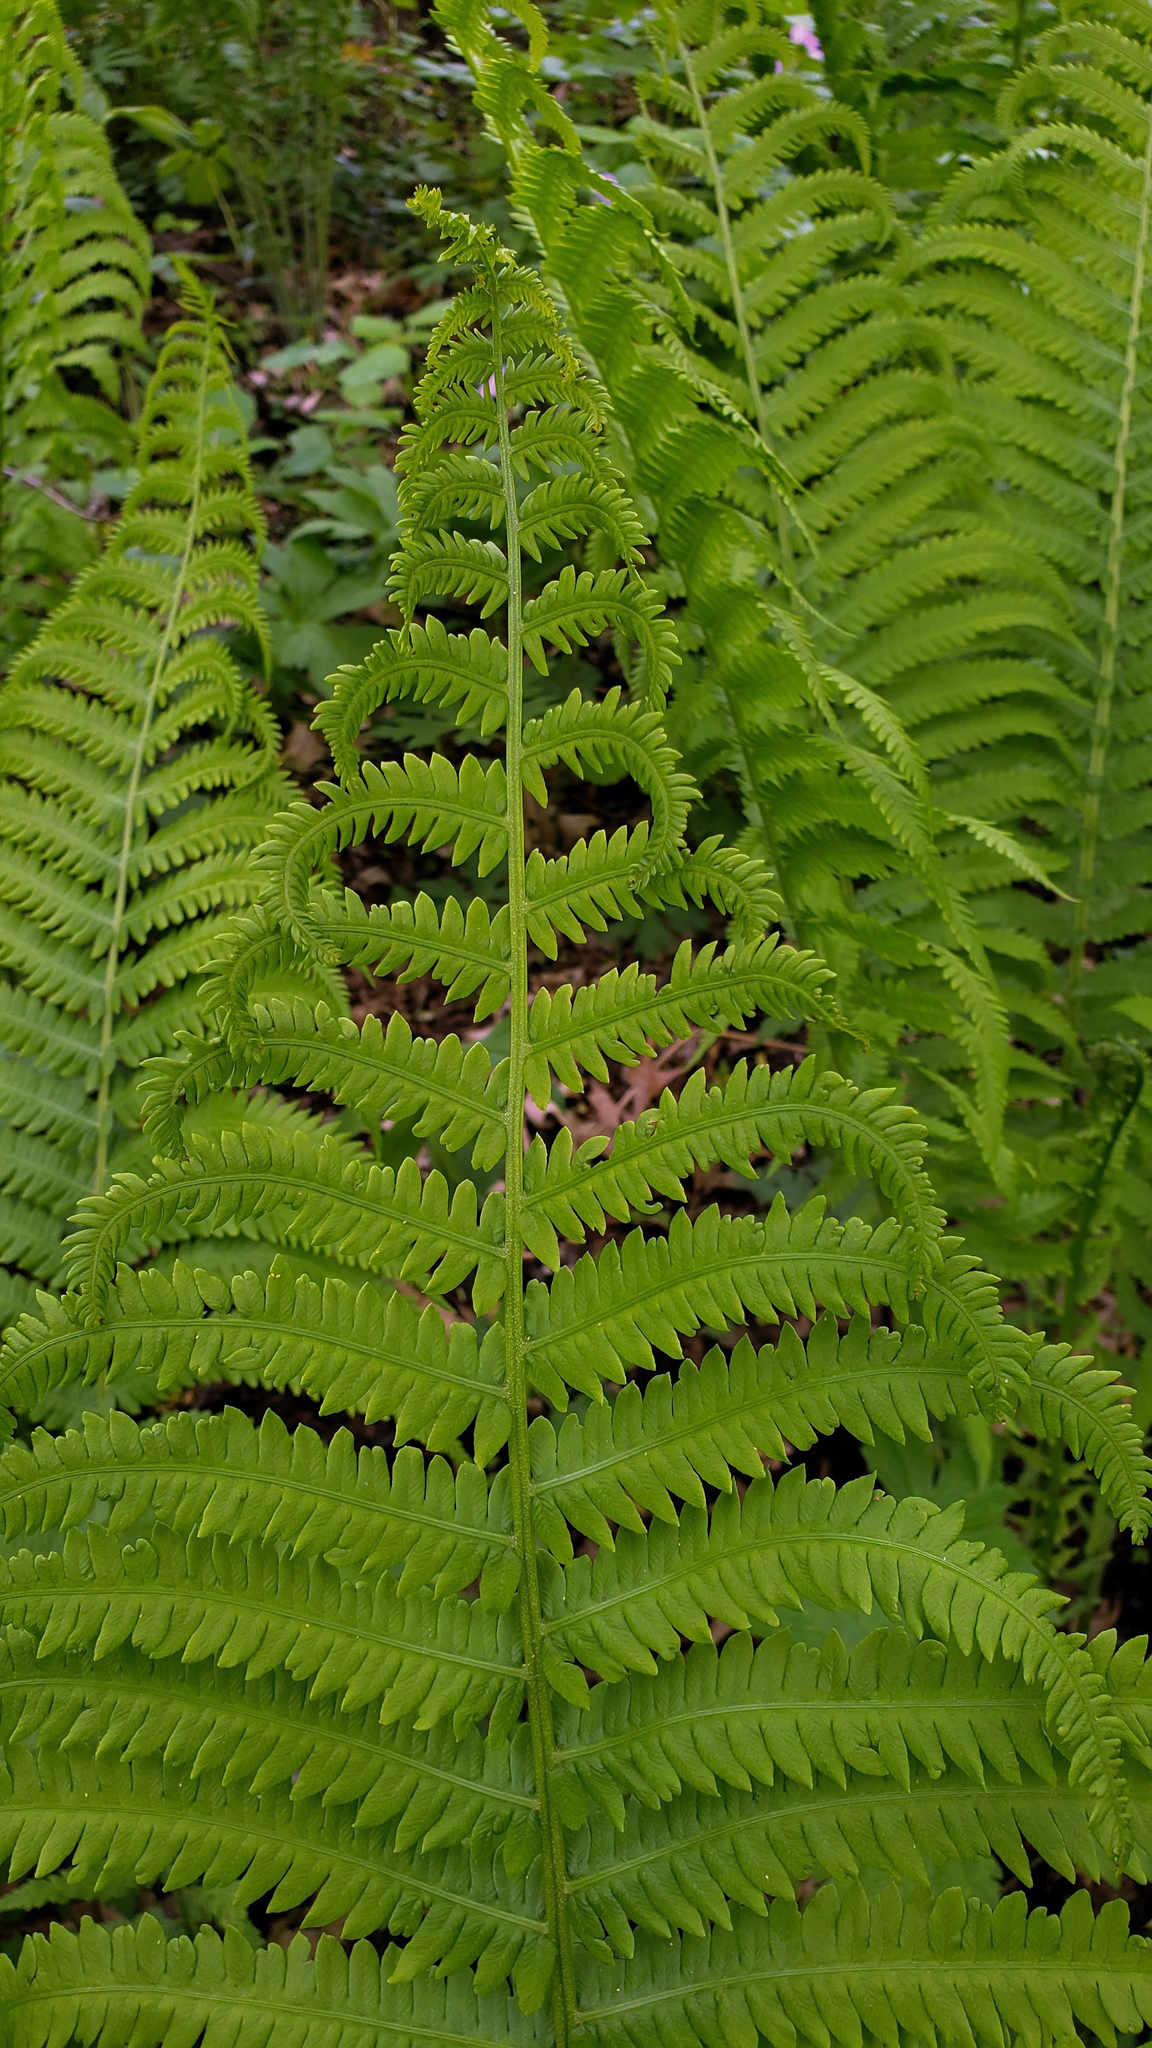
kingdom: Plantae
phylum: Tracheophyta
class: Polypodiopsida
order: Polypodiales
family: Onocleaceae
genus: Matteuccia
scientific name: Matteuccia struthiopteris
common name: Ostrich fern
